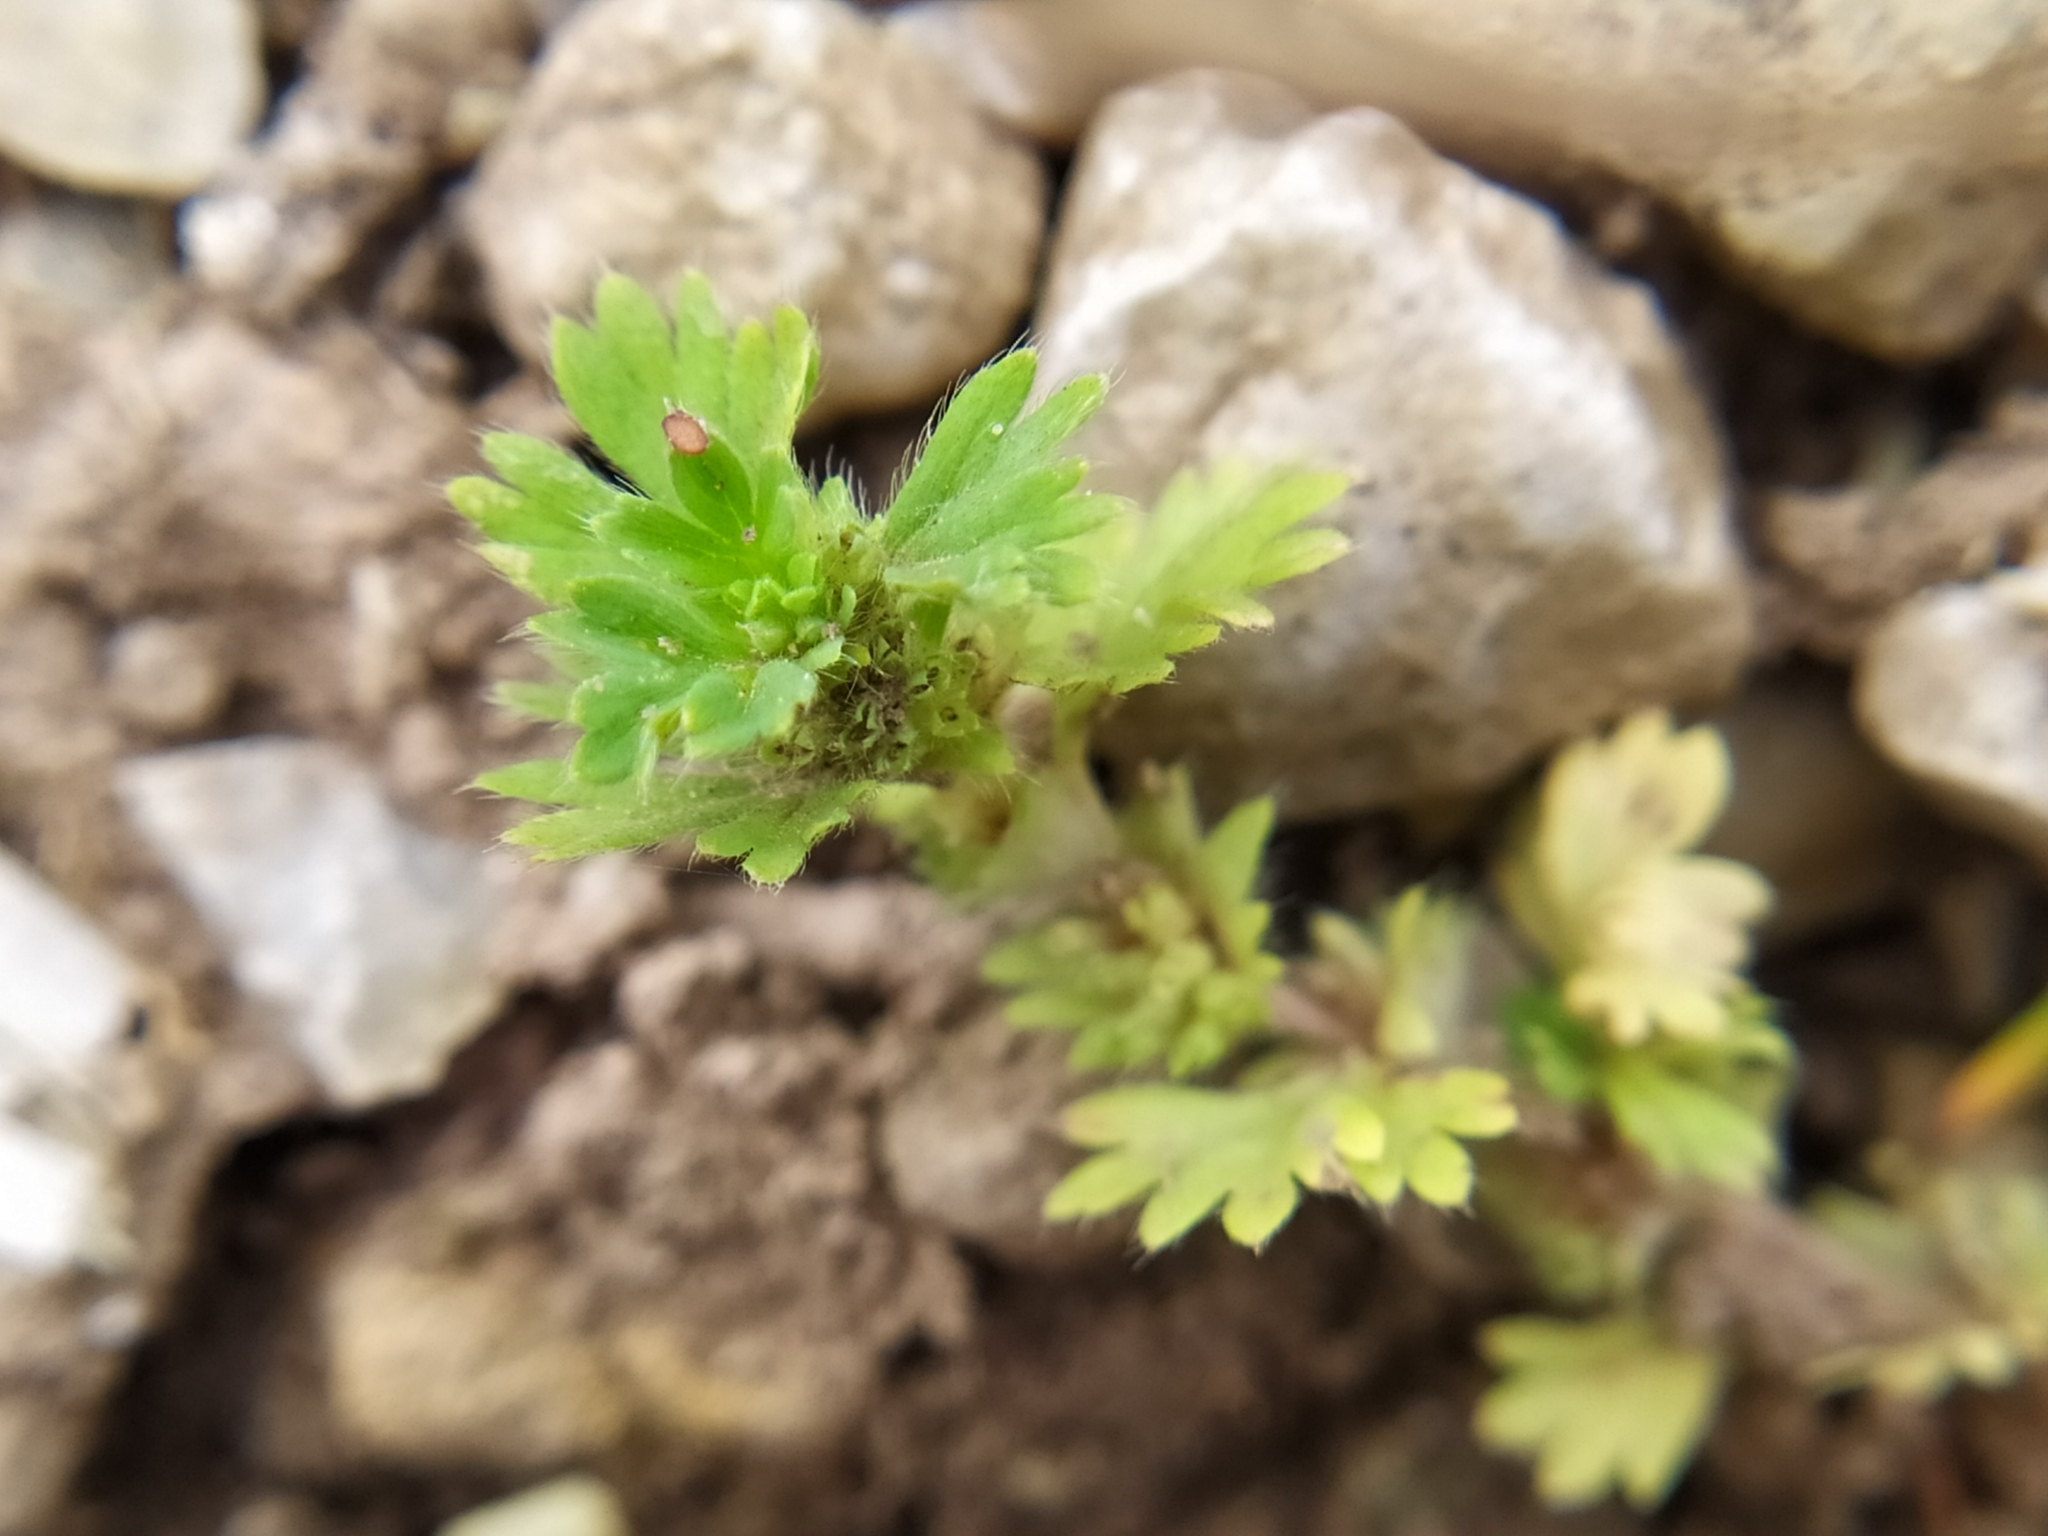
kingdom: Plantae
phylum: Tracheophyta
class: Magnoliopsida
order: Rosales
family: Rosaceae
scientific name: Rosaceae
